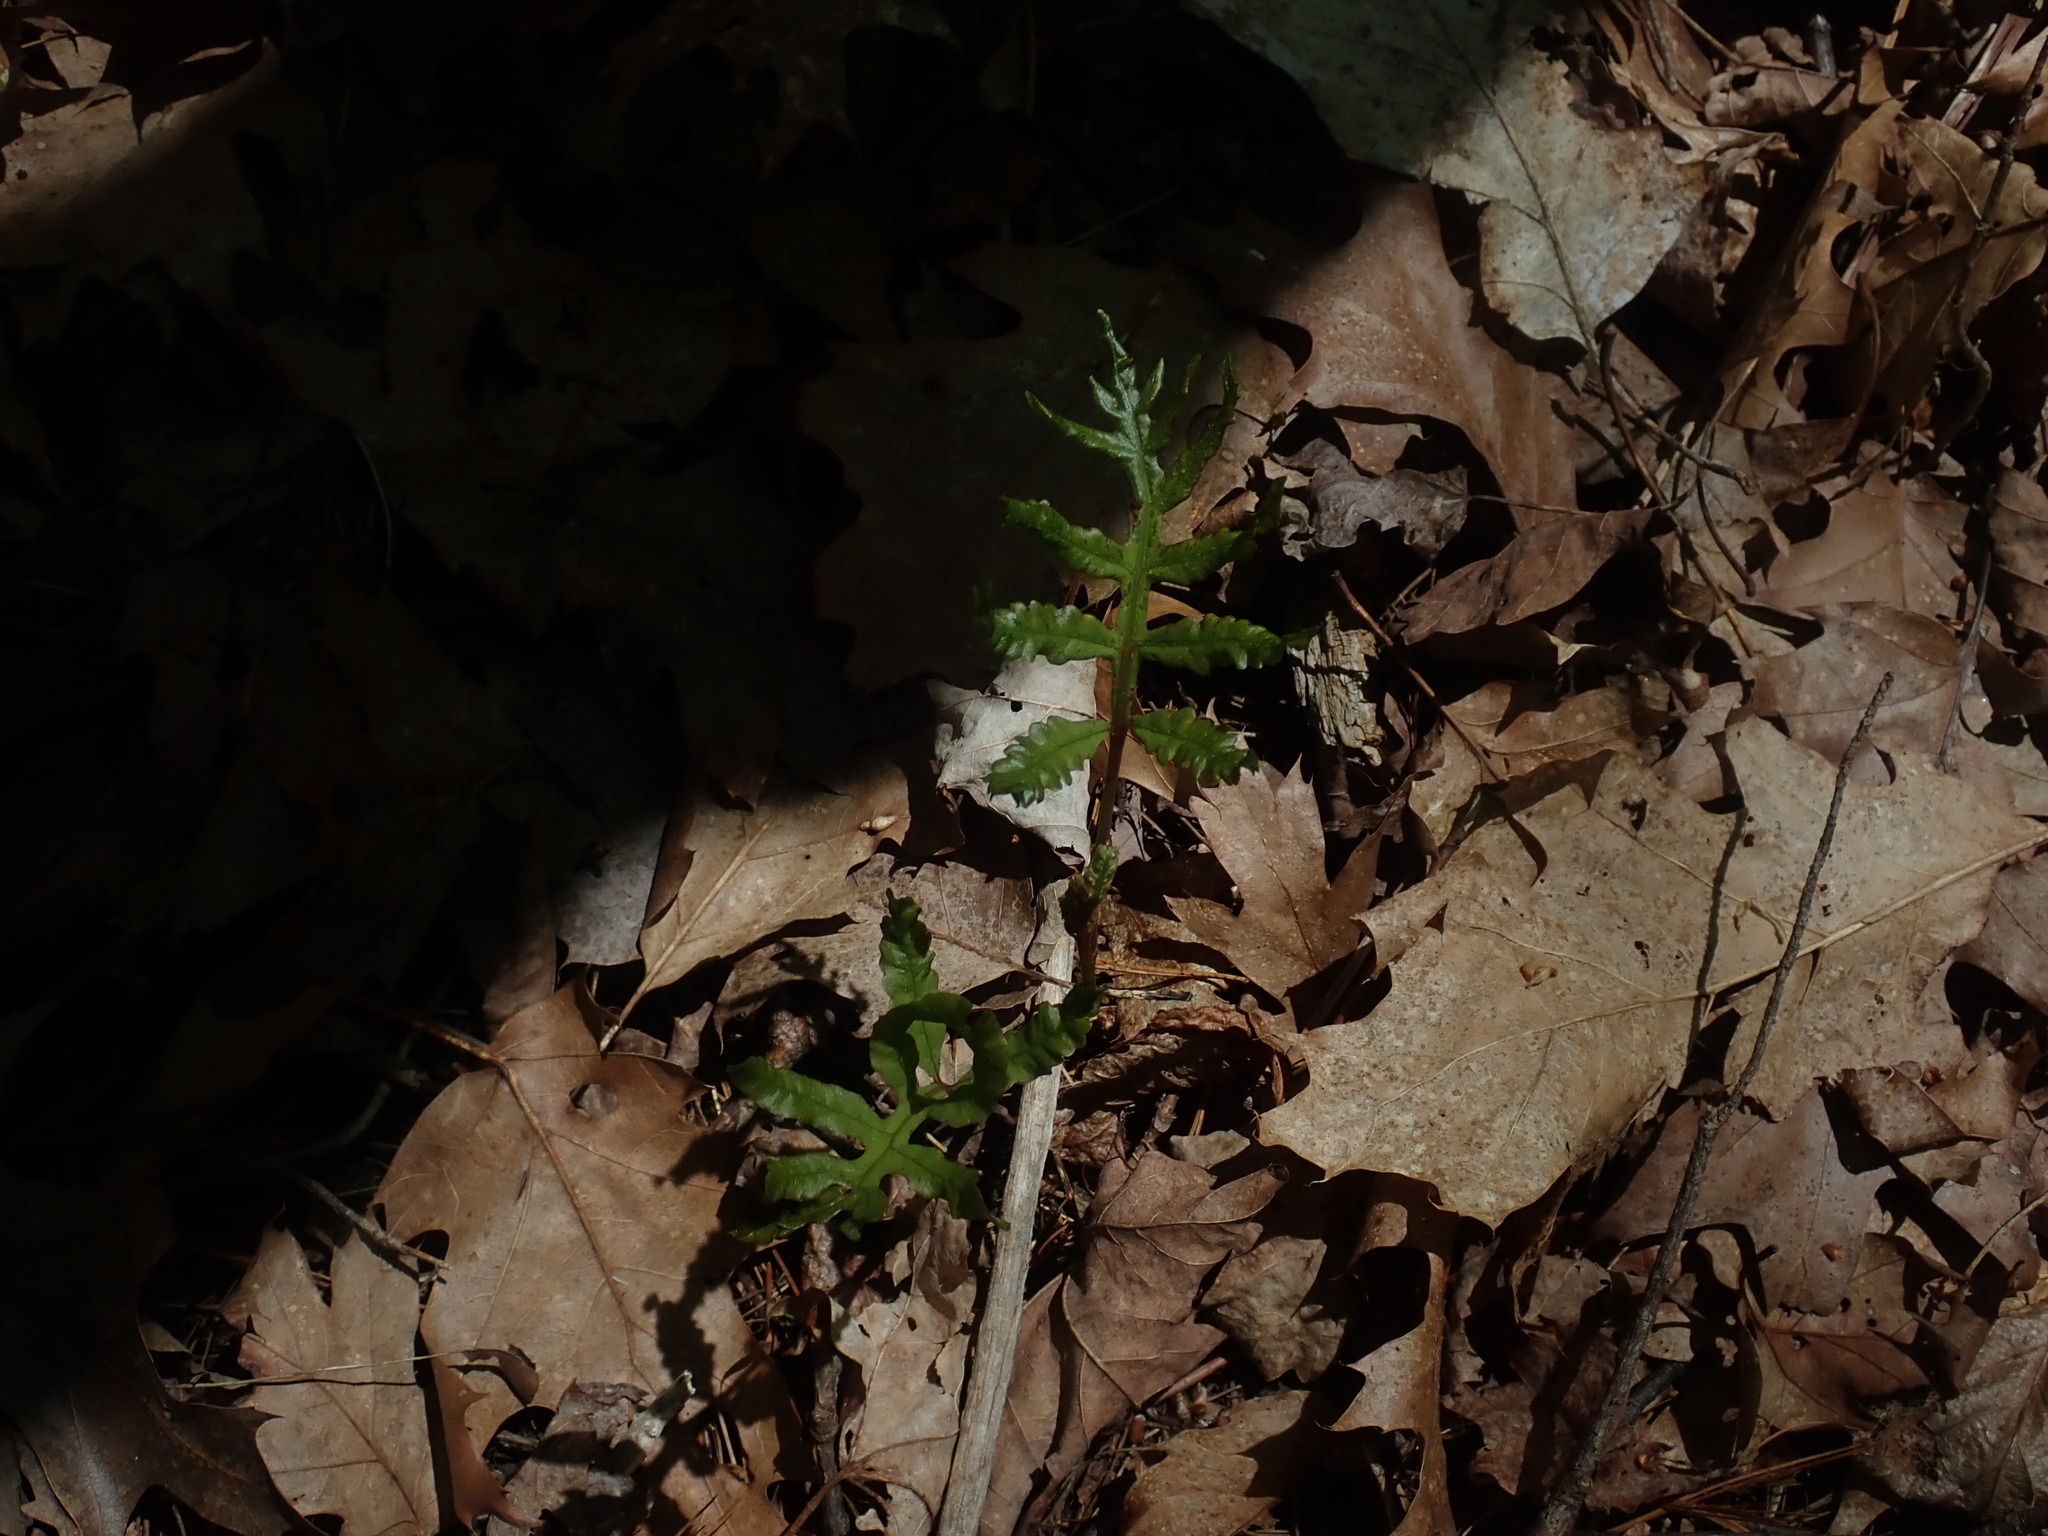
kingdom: Plantae
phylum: Tracheophyta
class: Polypodiopsida
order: Polypodiales
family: Onocleaceae
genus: Onoclea
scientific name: Onoclea sensibilis
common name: Sensitive fern
